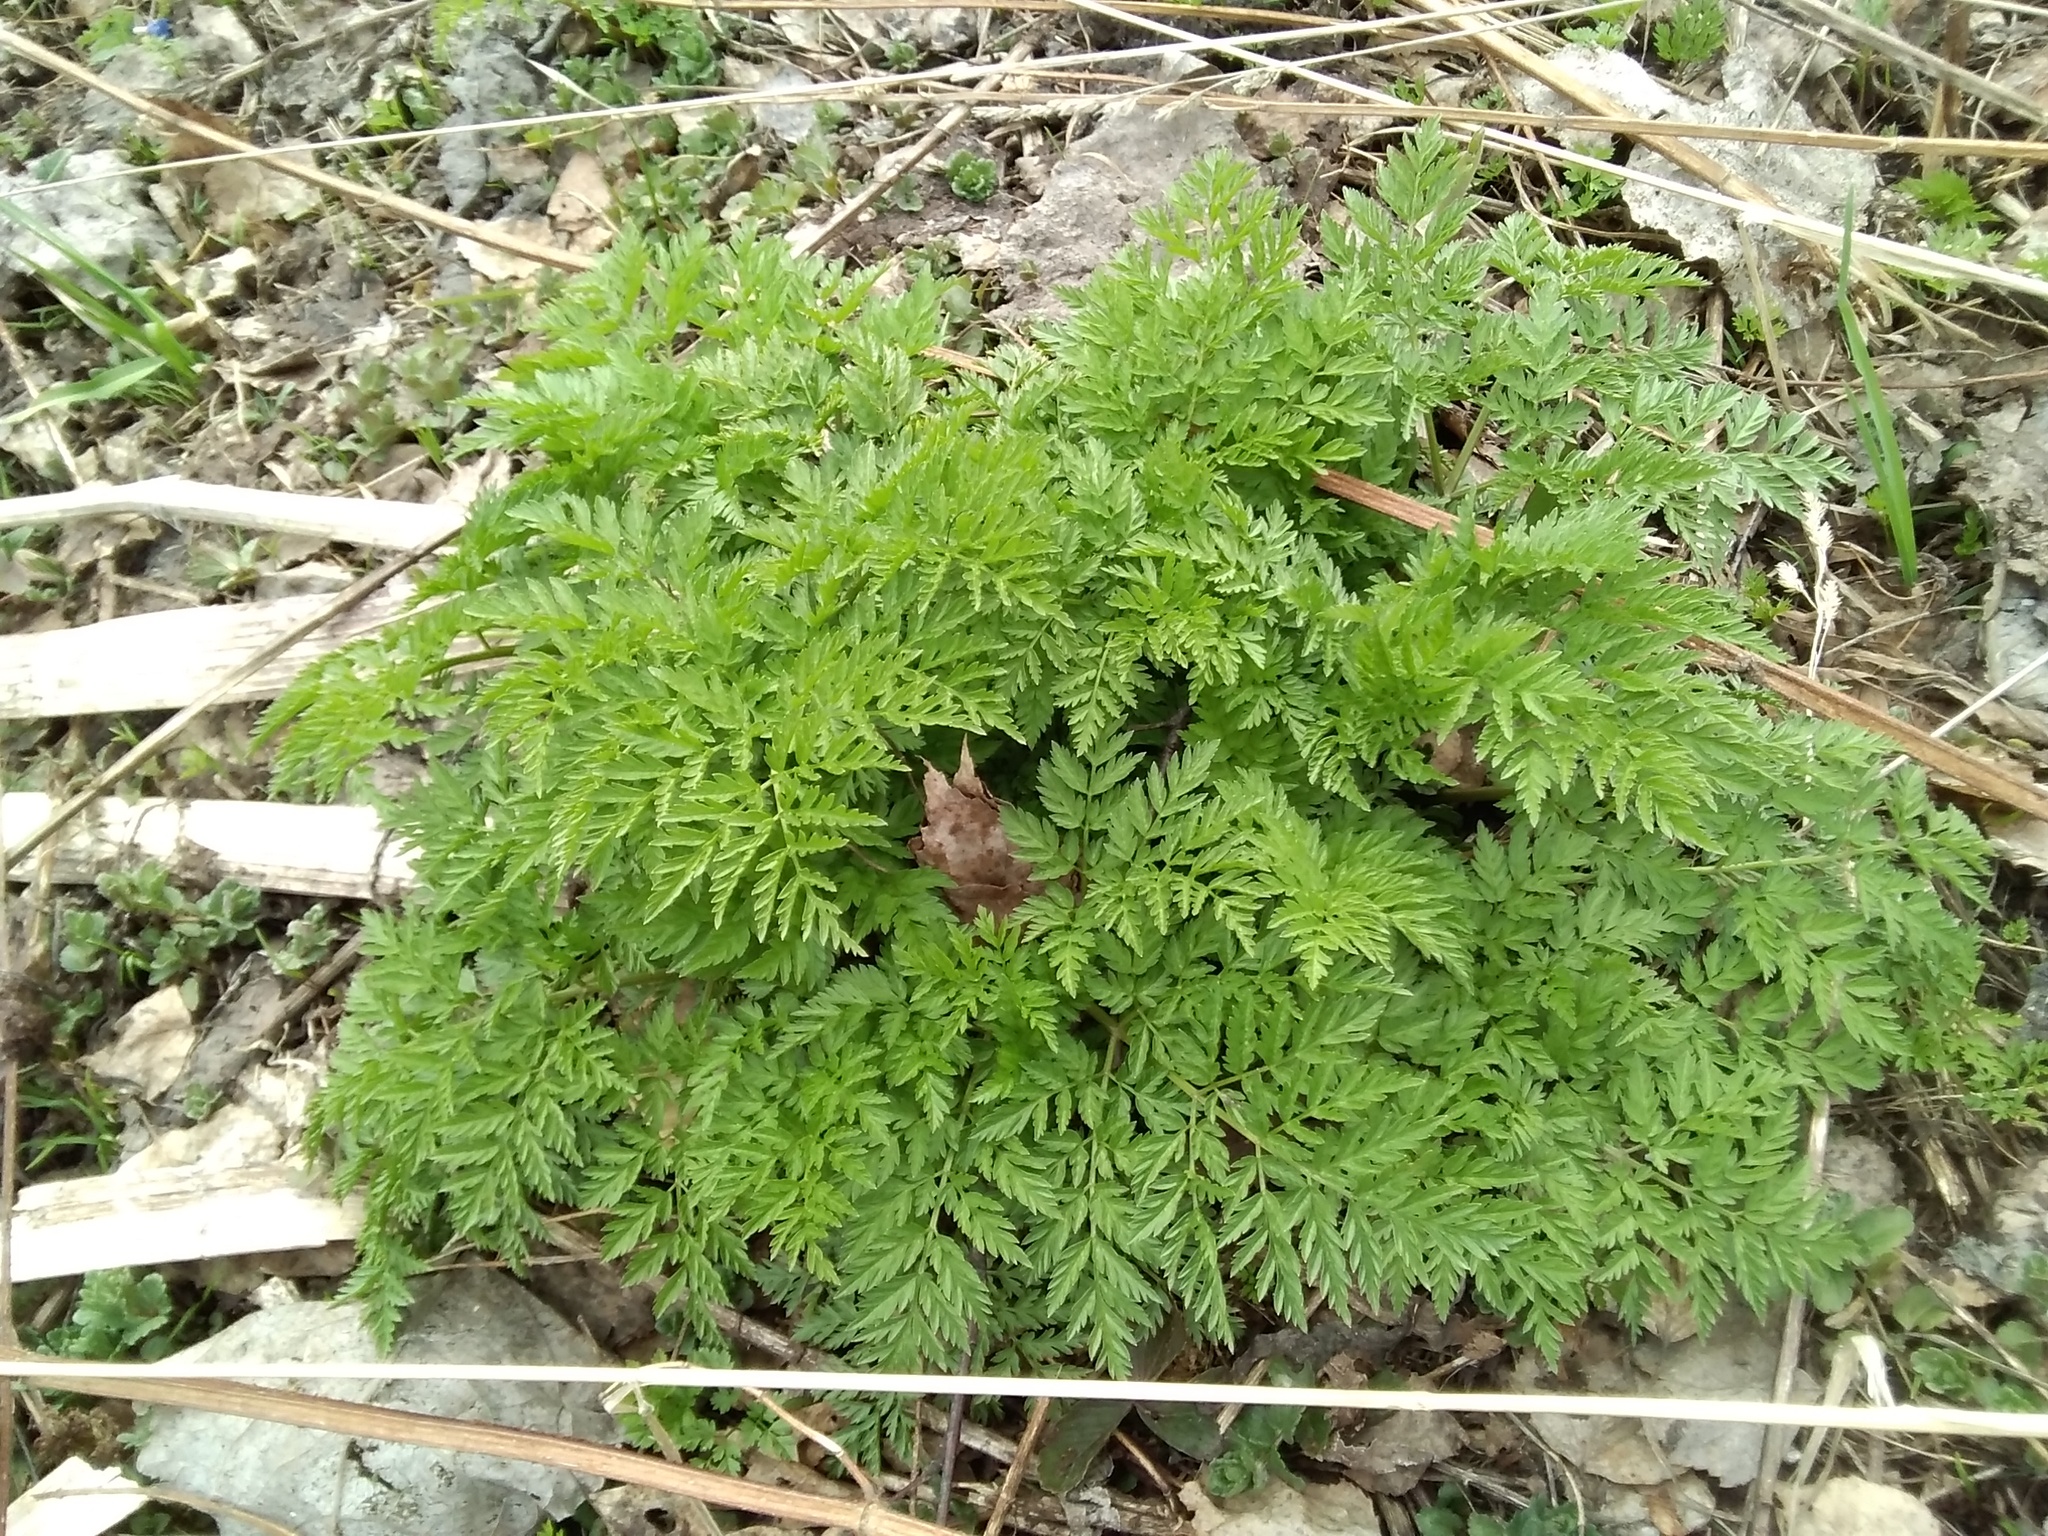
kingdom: Plantae
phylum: Tracheophyta
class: Magnoliopsida
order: Apiales
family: Apiaceae
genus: Anthriscus
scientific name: Anthriscus sylvestris
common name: Cow parsley
